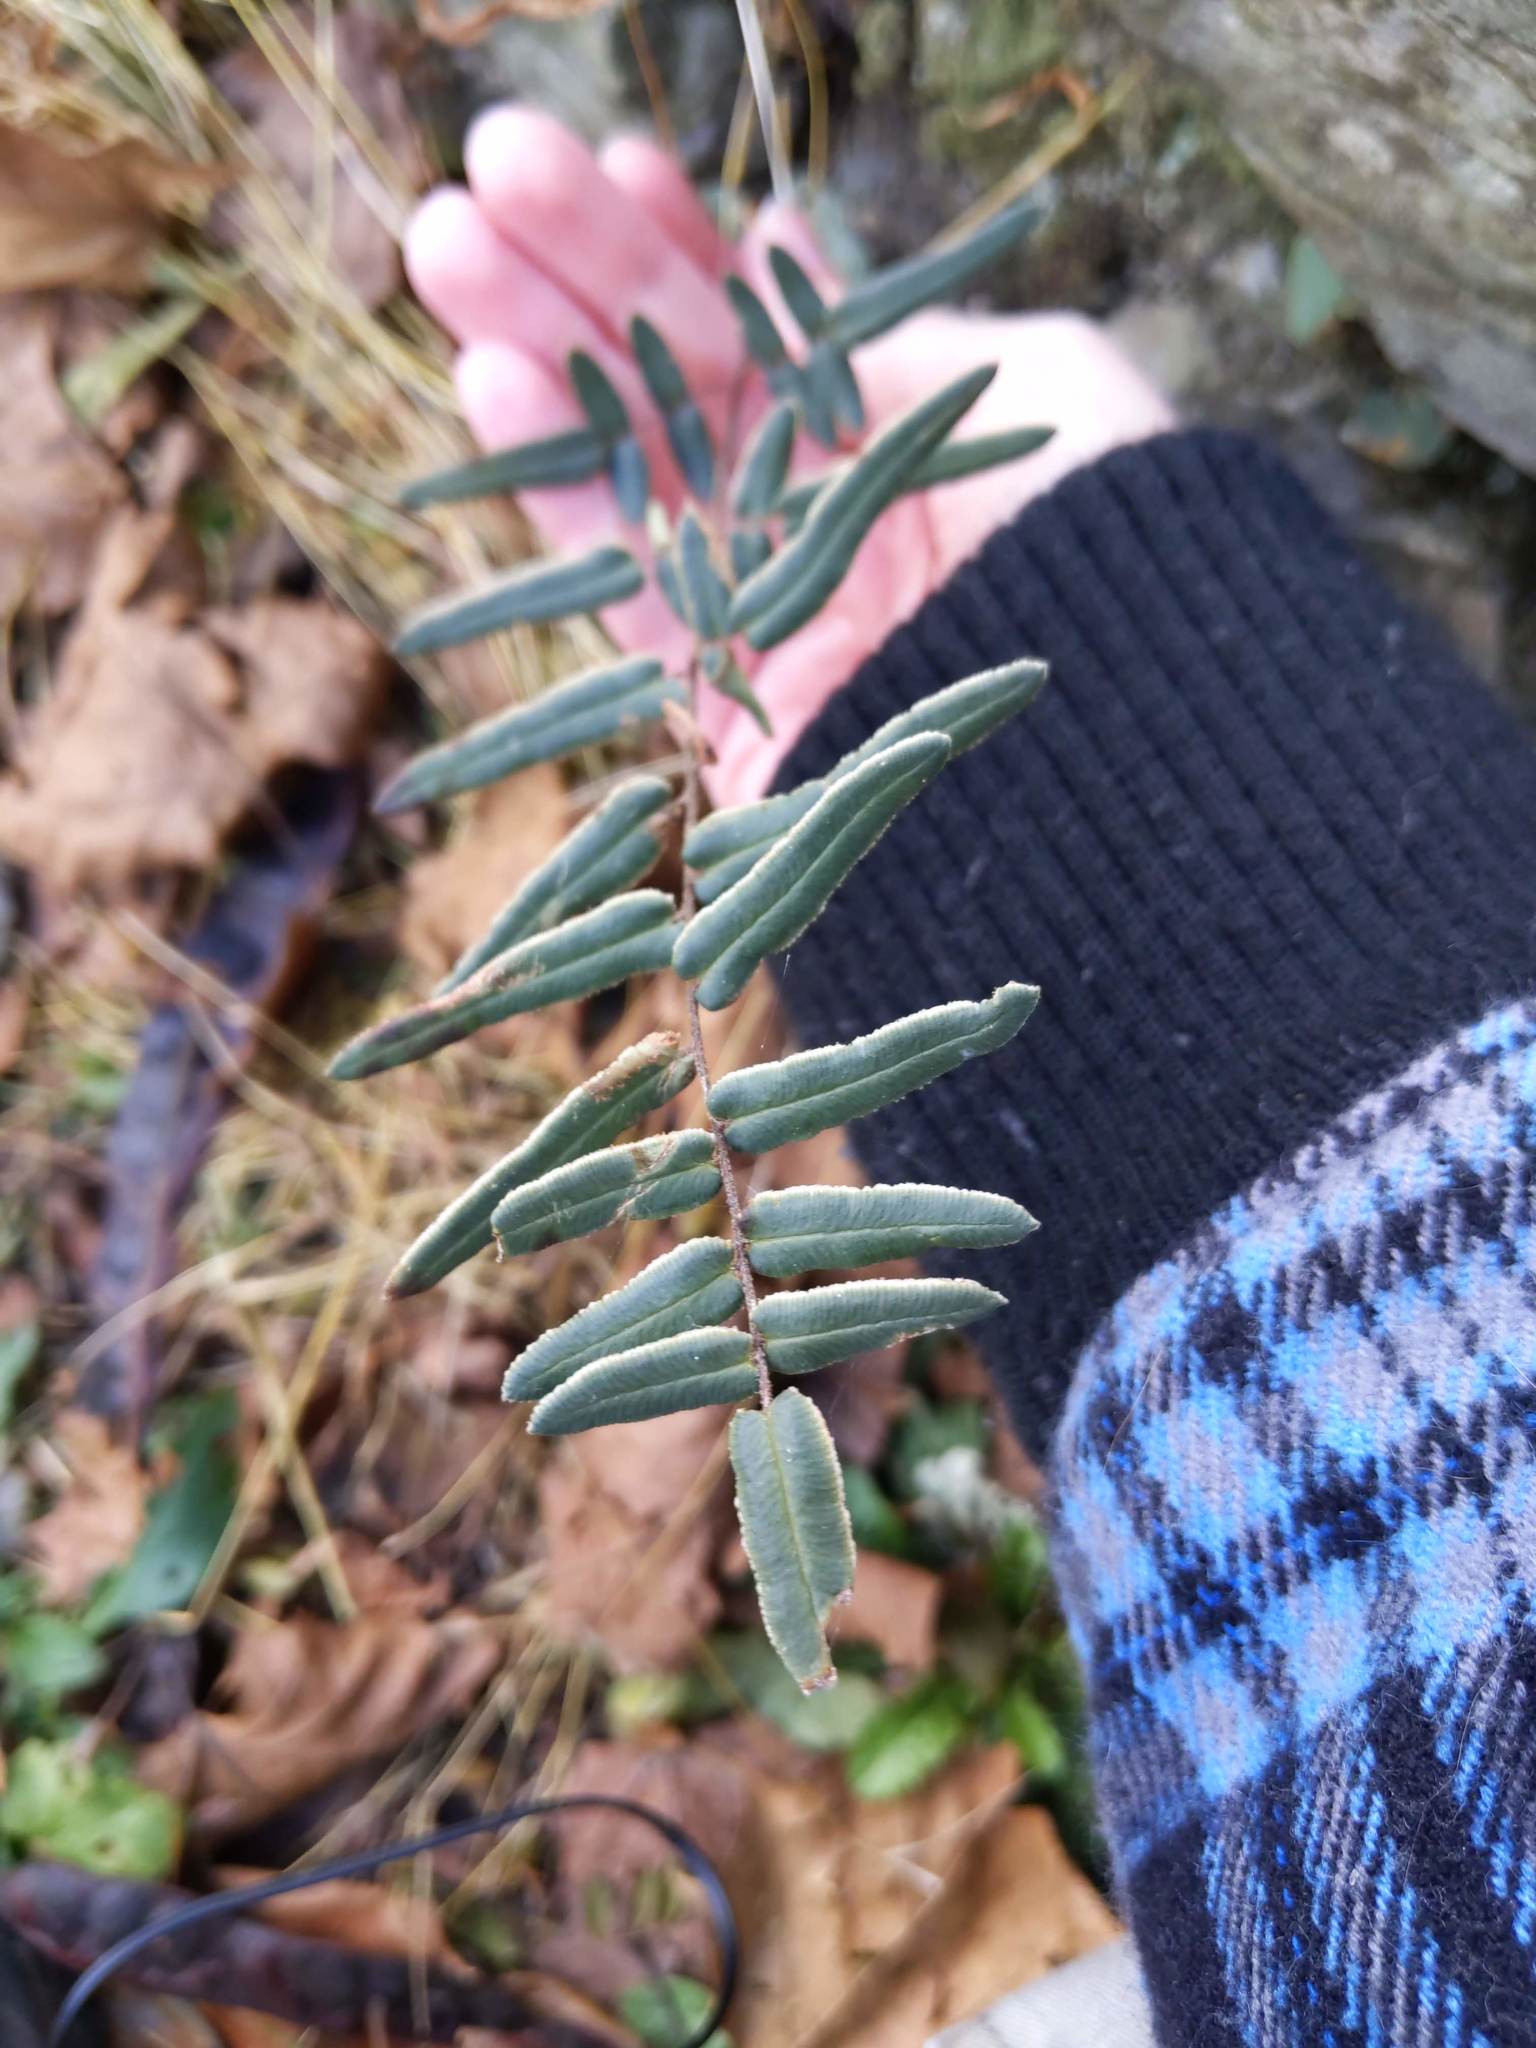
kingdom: Plantae
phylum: Tracheophyta
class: Polypodiopsida
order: Polypodiales
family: Pteridaceae
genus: Pellaea
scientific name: Pellaea atropurpurea
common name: Hairy cliffbrake
